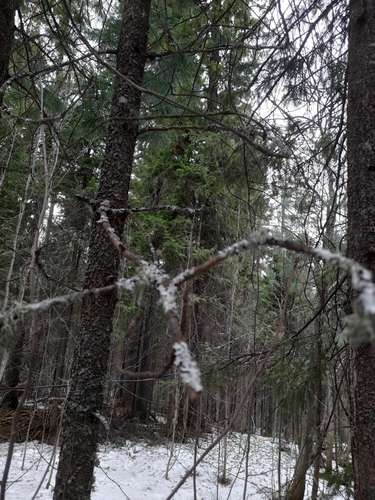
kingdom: Fungi
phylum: Ascomycota
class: Lecanoromycetes
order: Lecanorales
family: Parmeliaceae
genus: Evernia
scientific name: Evernia mesomorpha
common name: Boreal oak moss lichen
